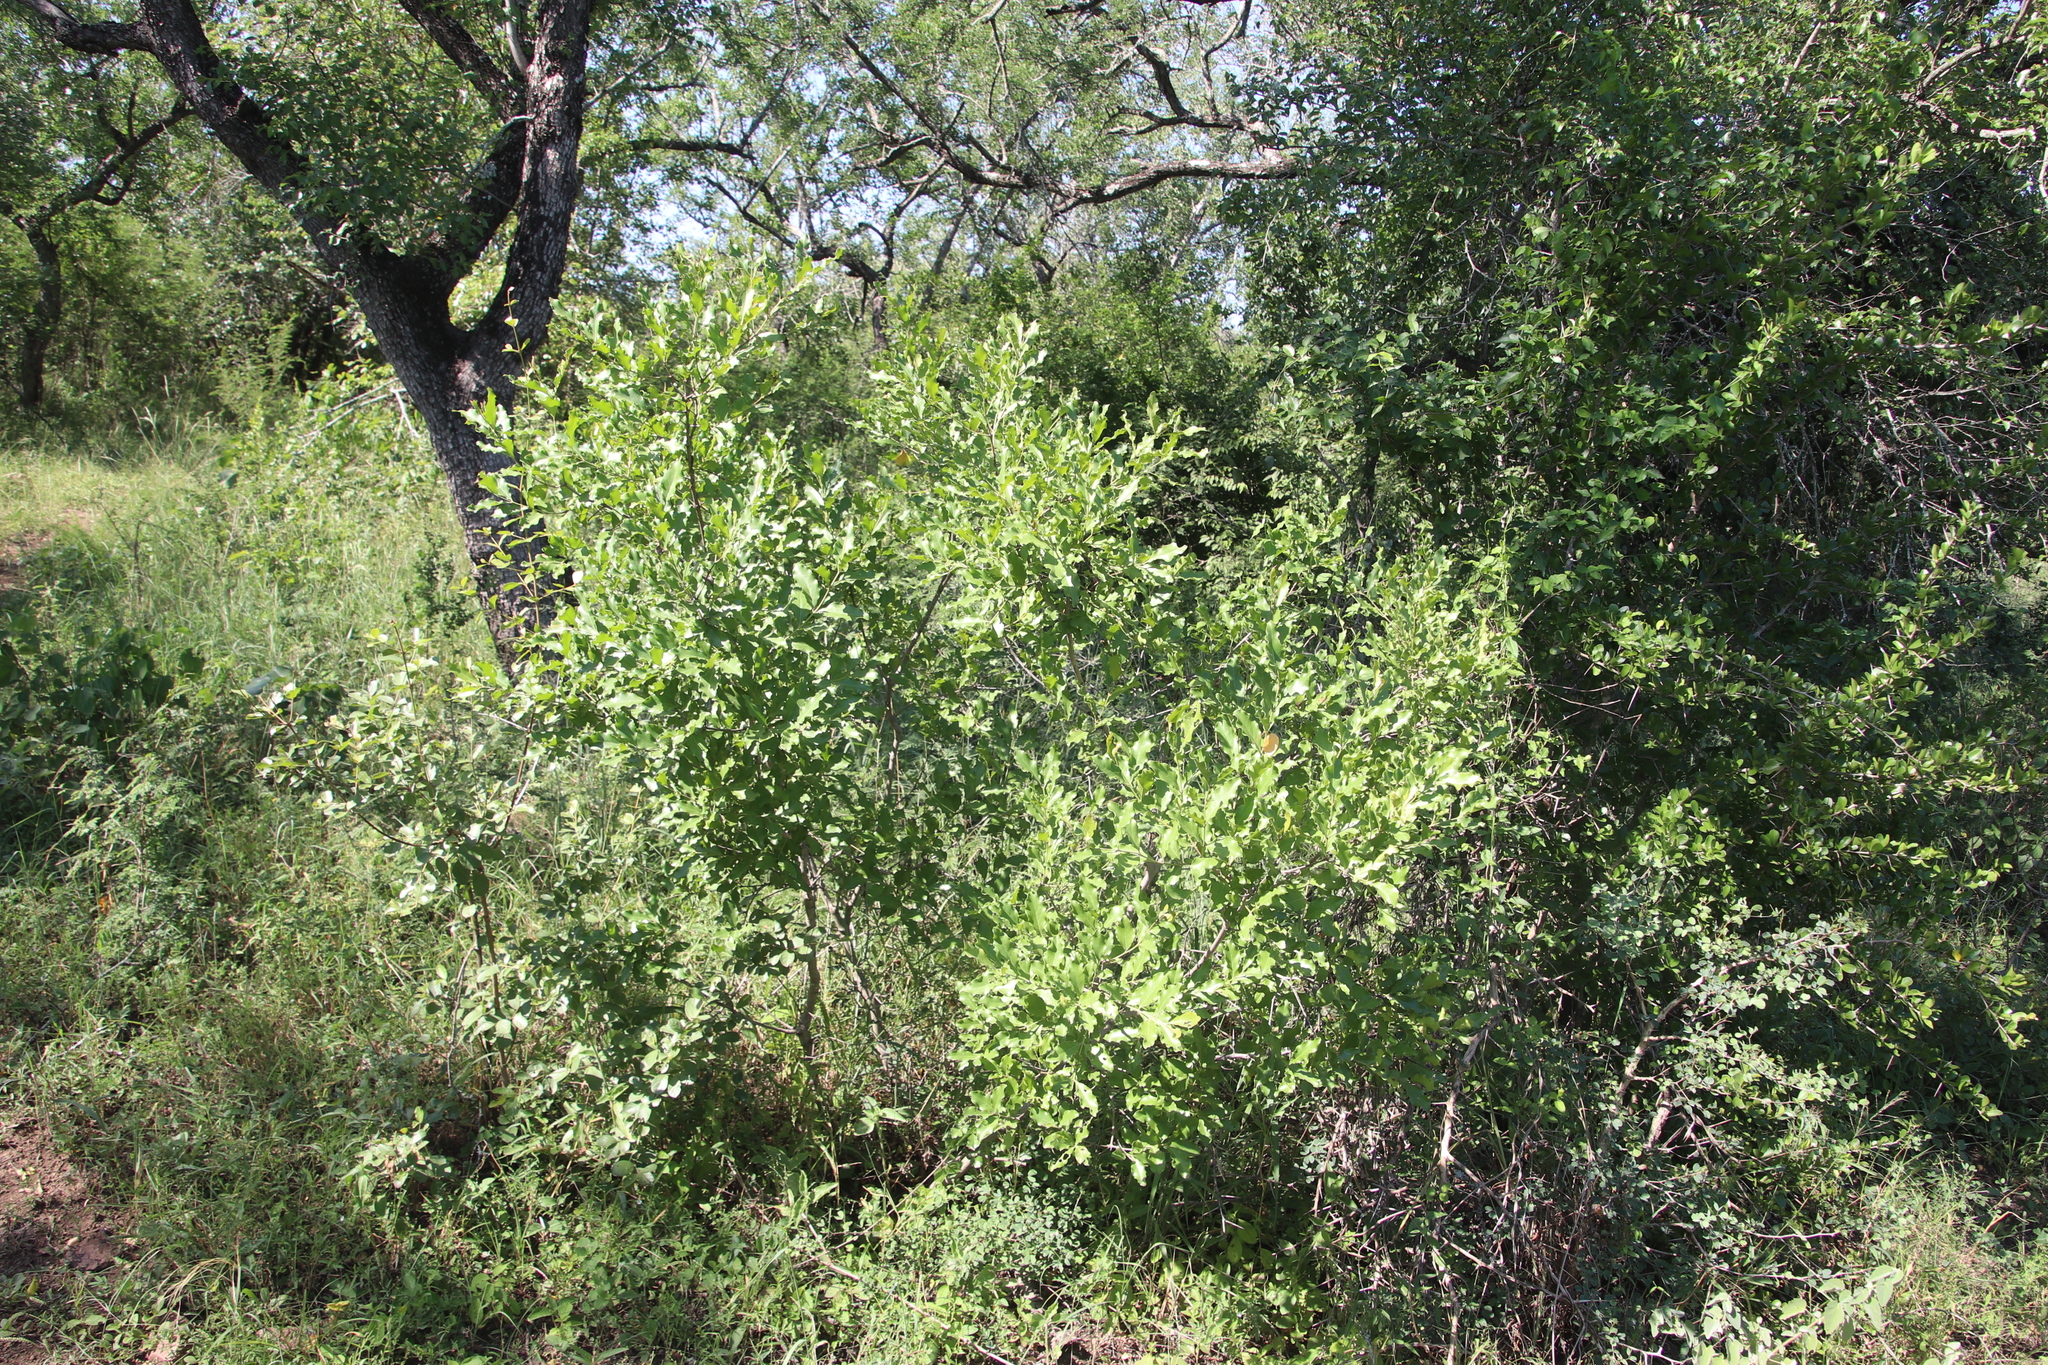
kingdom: Plantae
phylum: Tracheophyta
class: Magnoliopsida
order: Myrtales
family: Lythraceae
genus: Galpinia
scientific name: Galpinia transvaalica
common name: Wild pride of india
